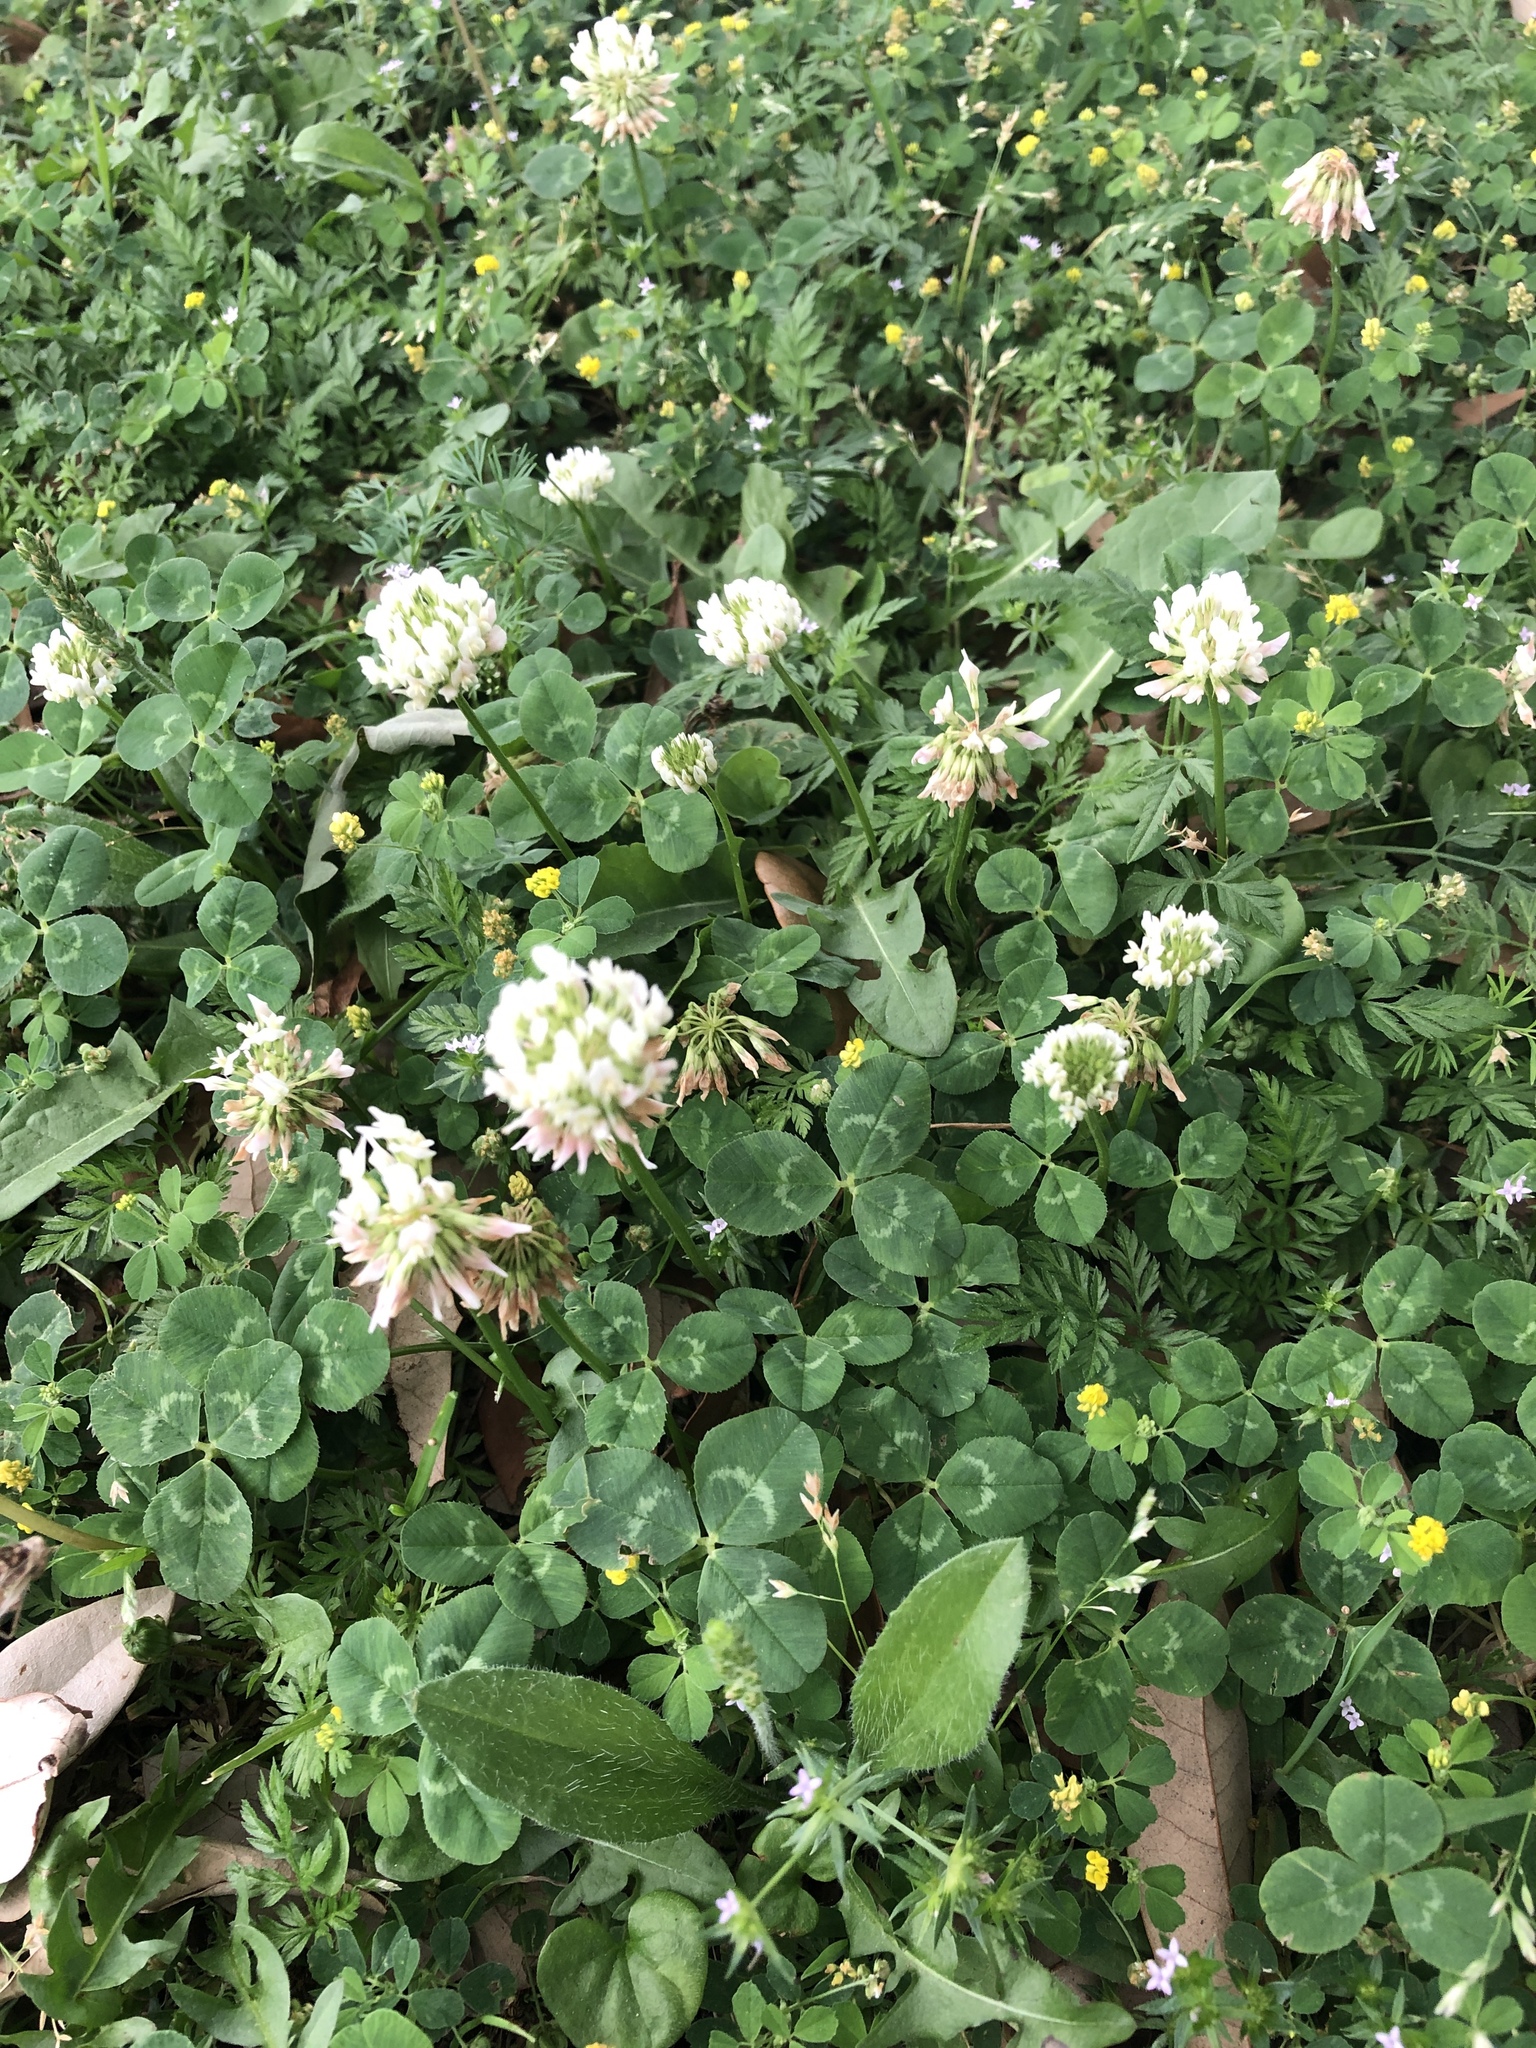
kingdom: Plantae
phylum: Tracheophyta
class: Magnoliopsida
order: Fabales
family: Fabaceae
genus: Trifolium
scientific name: Trifolium repens
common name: White clover
